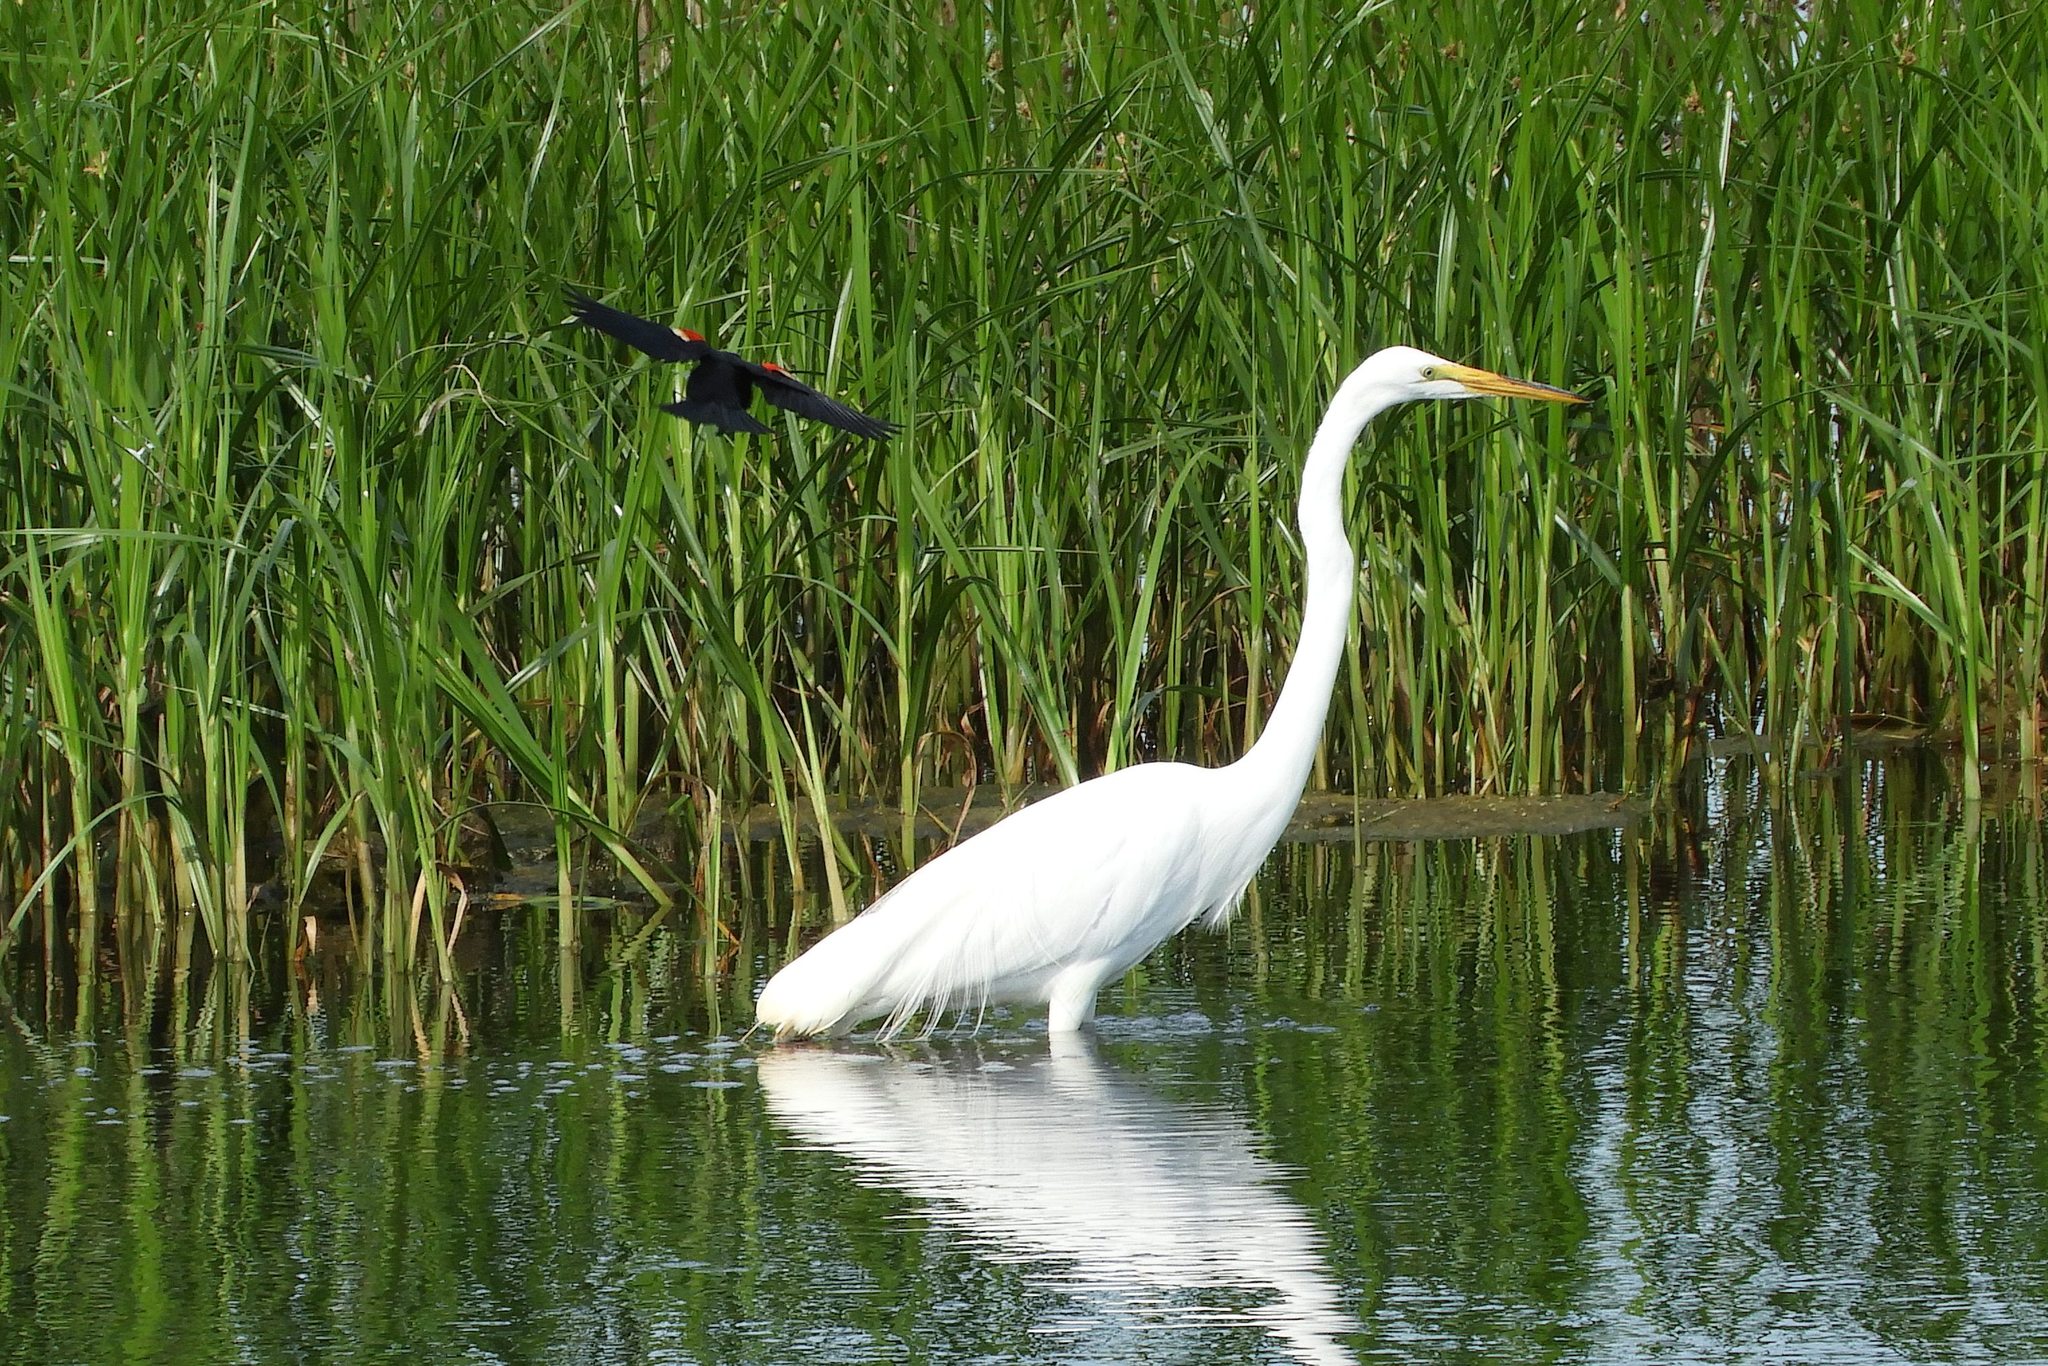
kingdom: Animalia
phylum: Chordata
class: Aves
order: Pelecaniformes
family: Ardeidae
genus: Ardea
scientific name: Ardea alba
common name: Great egret
